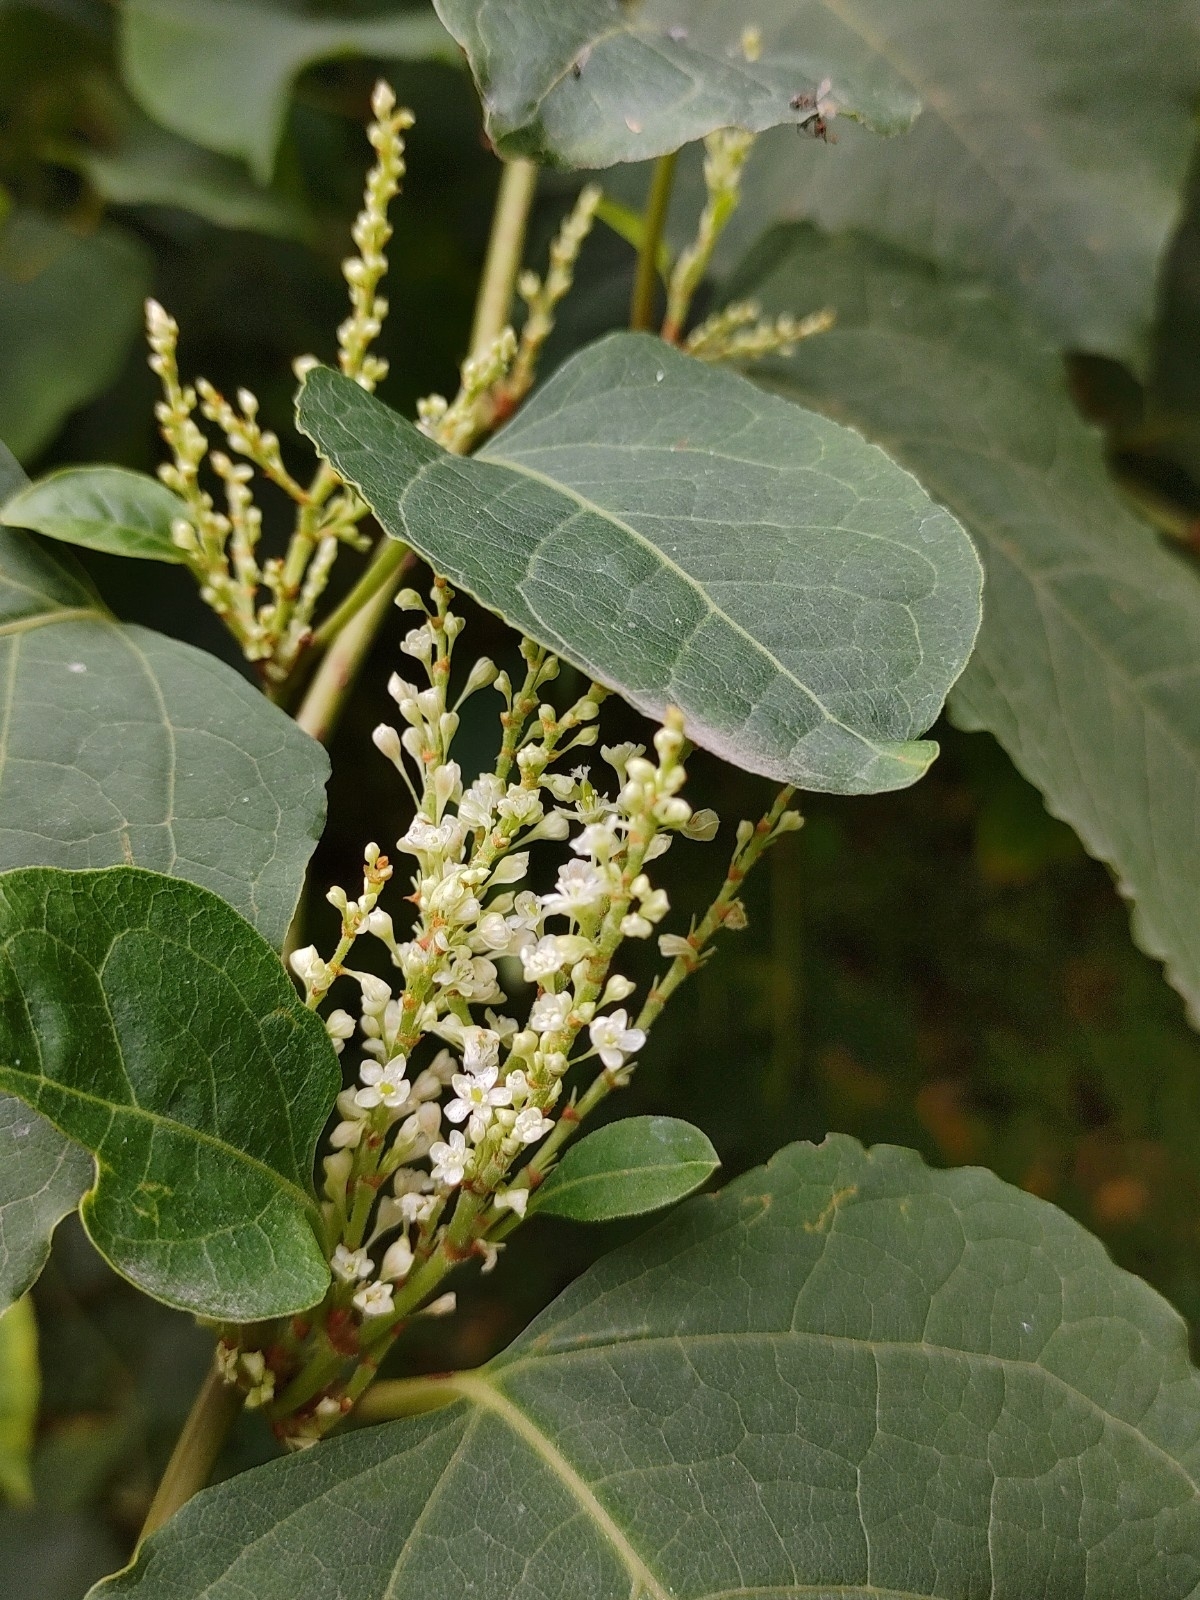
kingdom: Plantae
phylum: Tracheophyta
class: Magnoliopsida
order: Caryophyllales
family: Polygonaceae
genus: Reynoutria
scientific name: Reynoutria japonica
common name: Japanese knotweed
